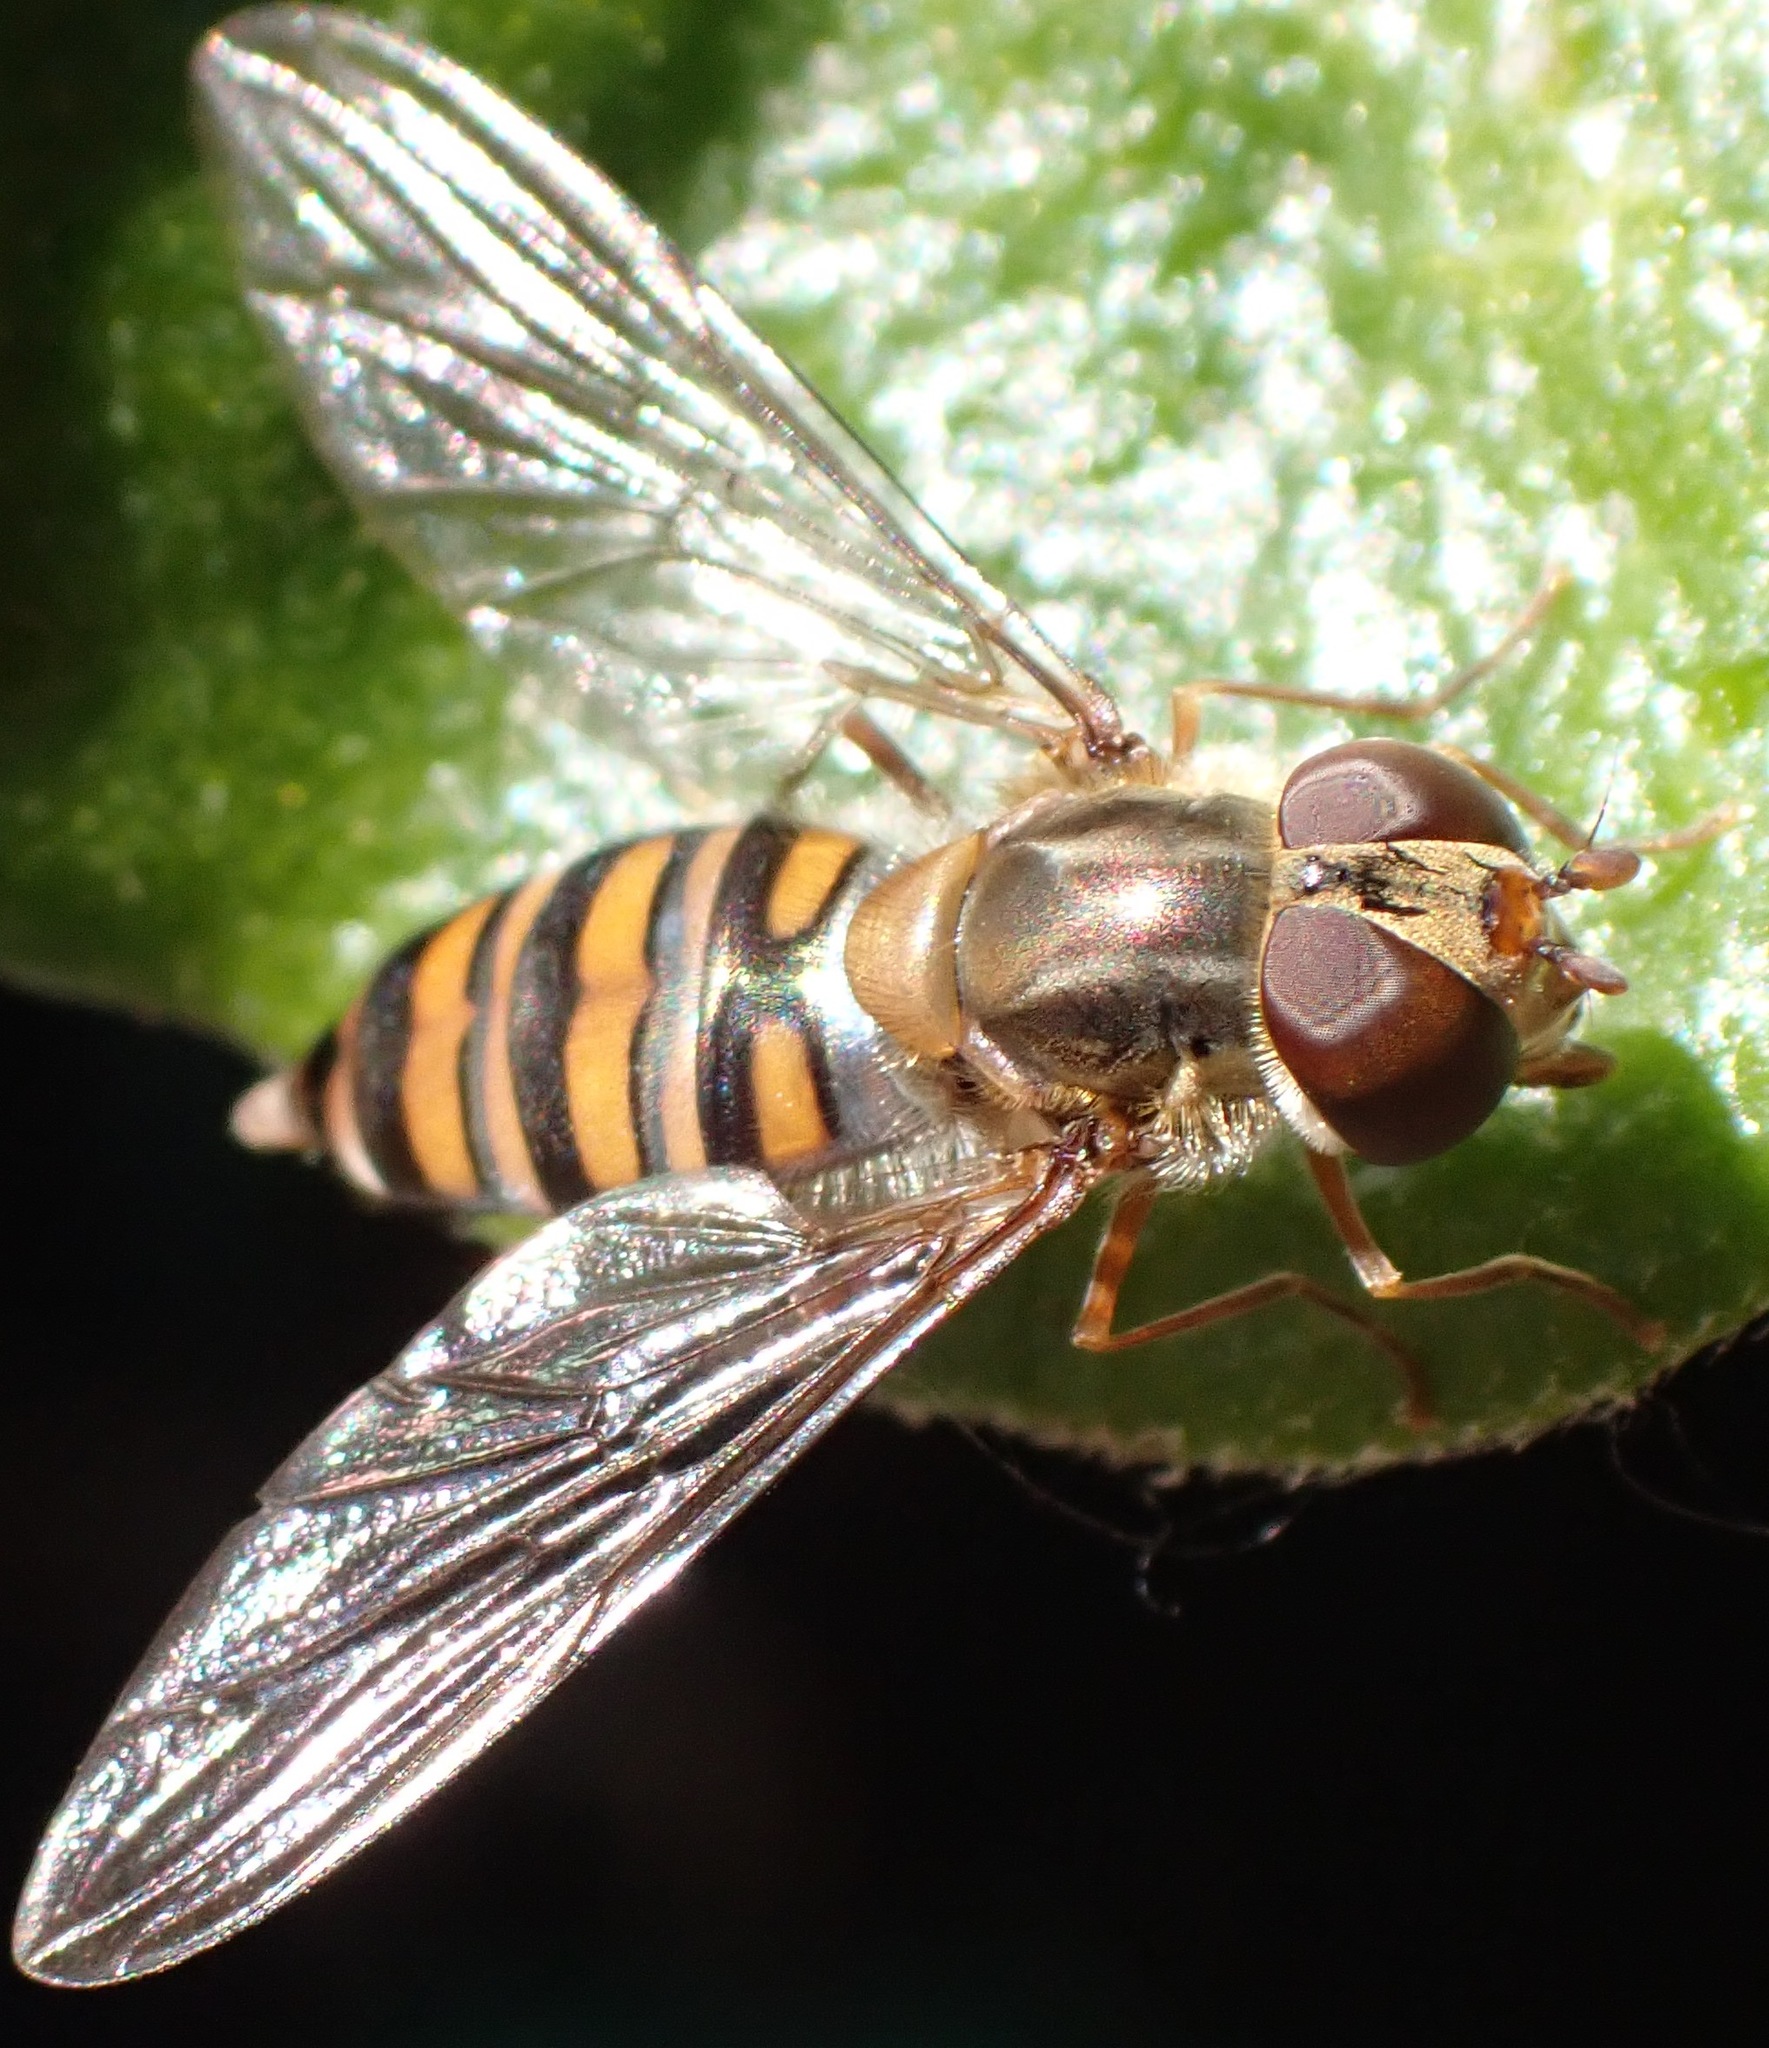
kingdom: Animalia
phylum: Arthropoda
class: Insecta
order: Diptera
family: Syrphidae
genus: Episyrphus
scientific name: Episyrphus balteatus
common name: Marmalade hoverfly
